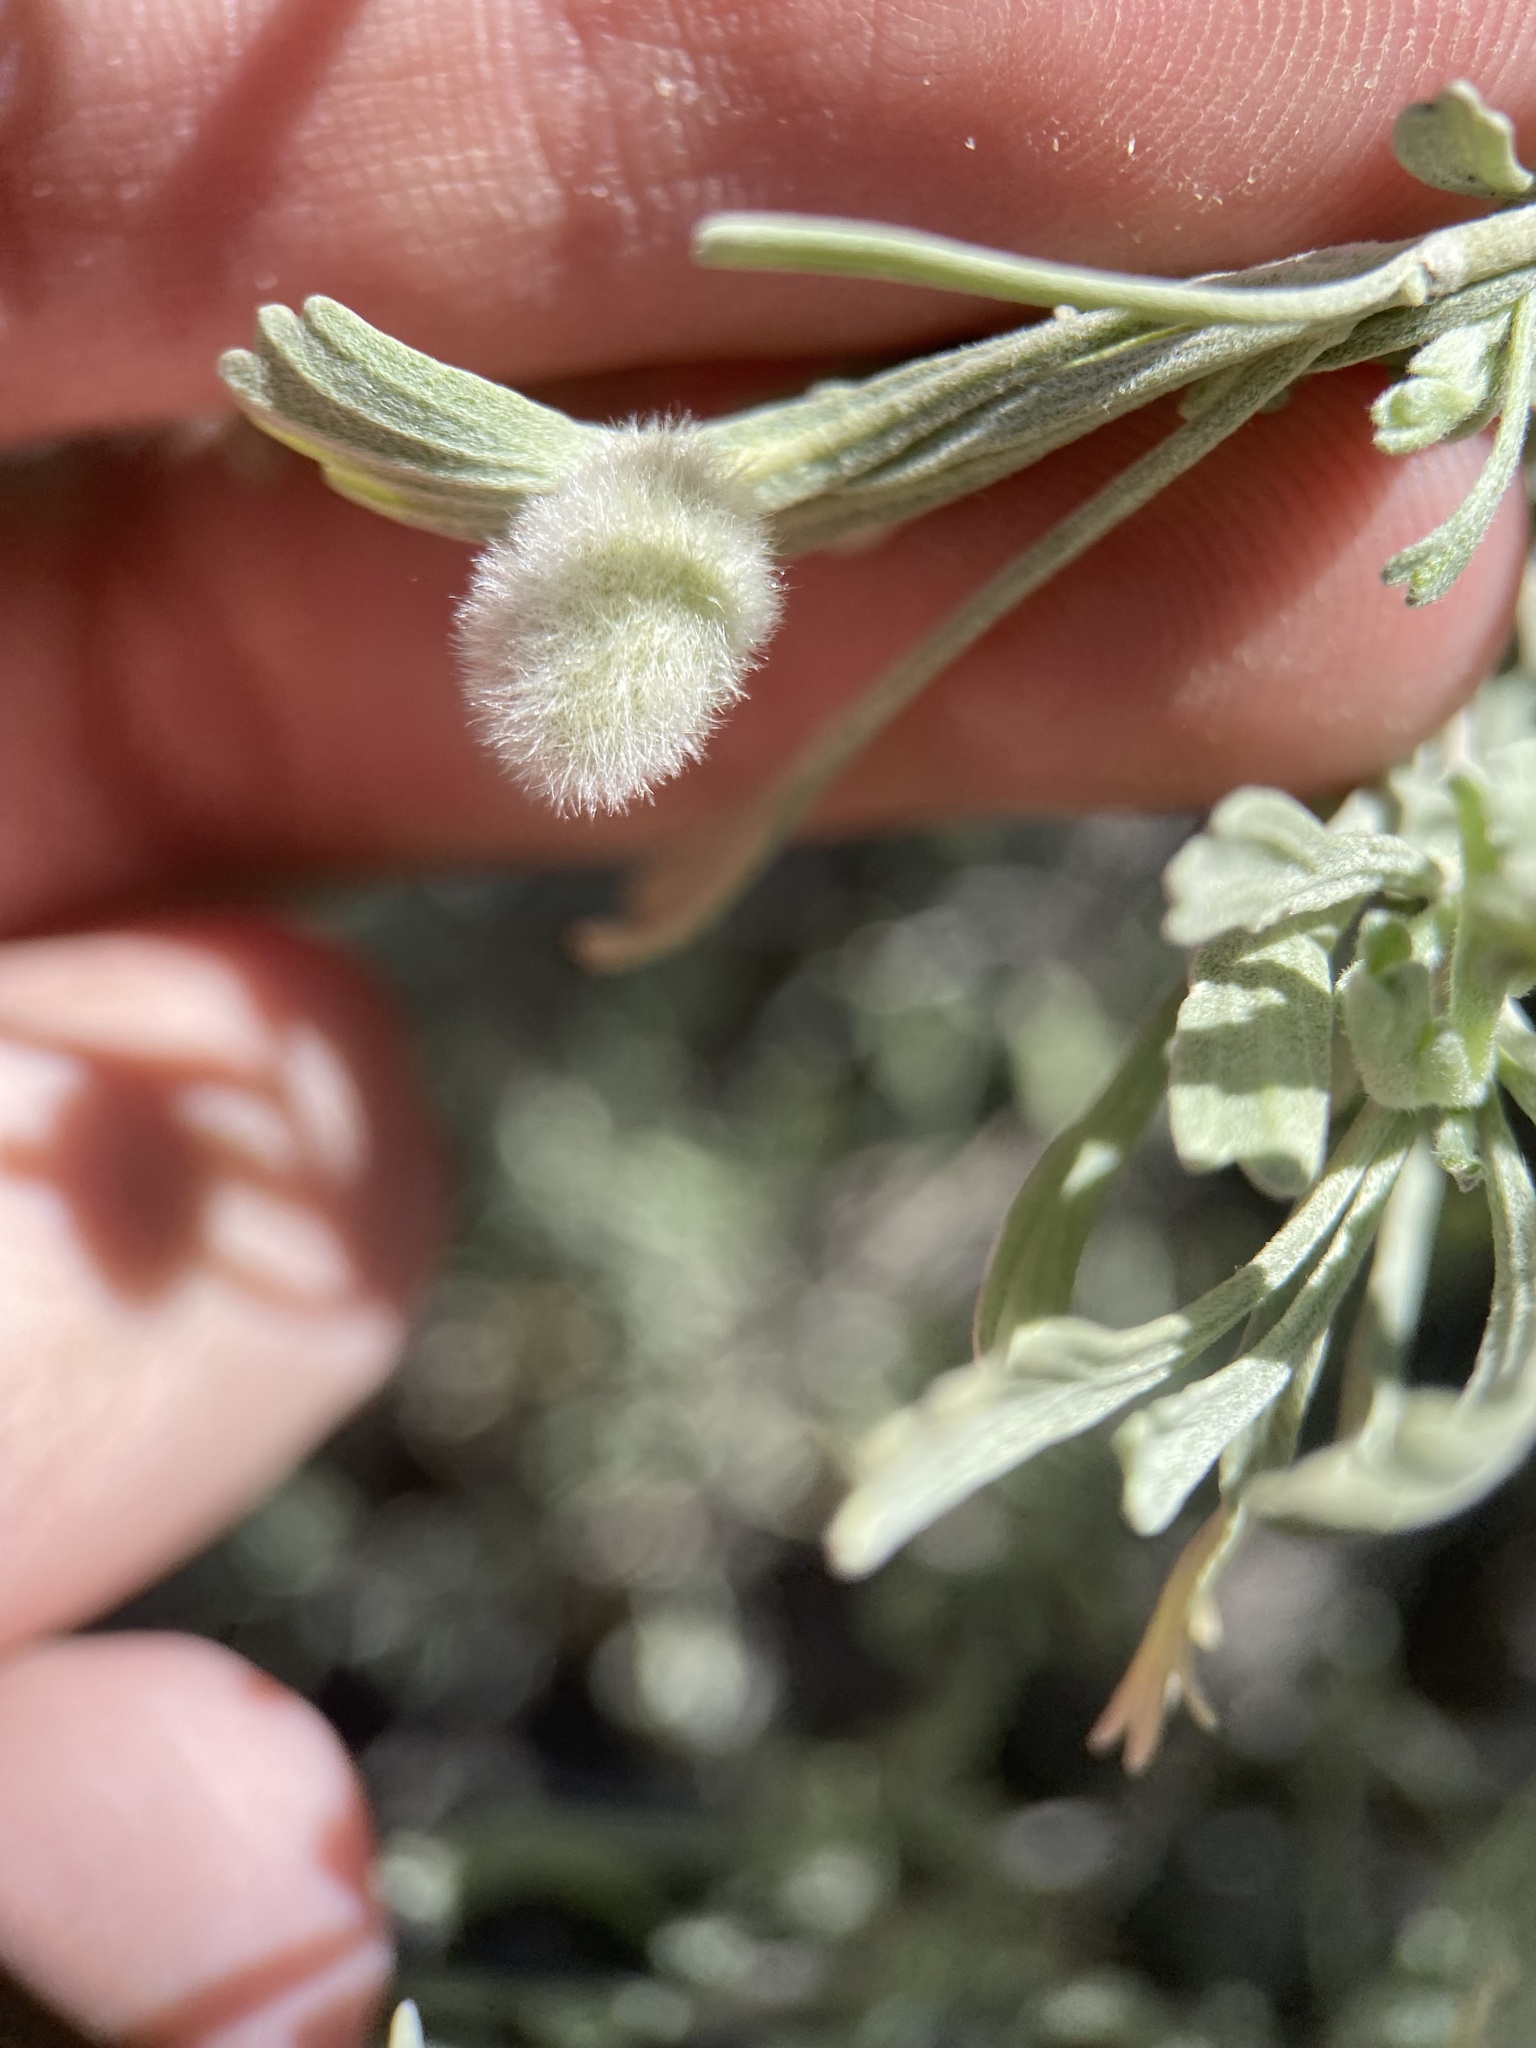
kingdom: Animalia
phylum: Arthropoda
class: Insecta
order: Diptera
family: Cecidomyiidae
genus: Rhopalomyia
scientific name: Rhopalomyia hirtipomum
